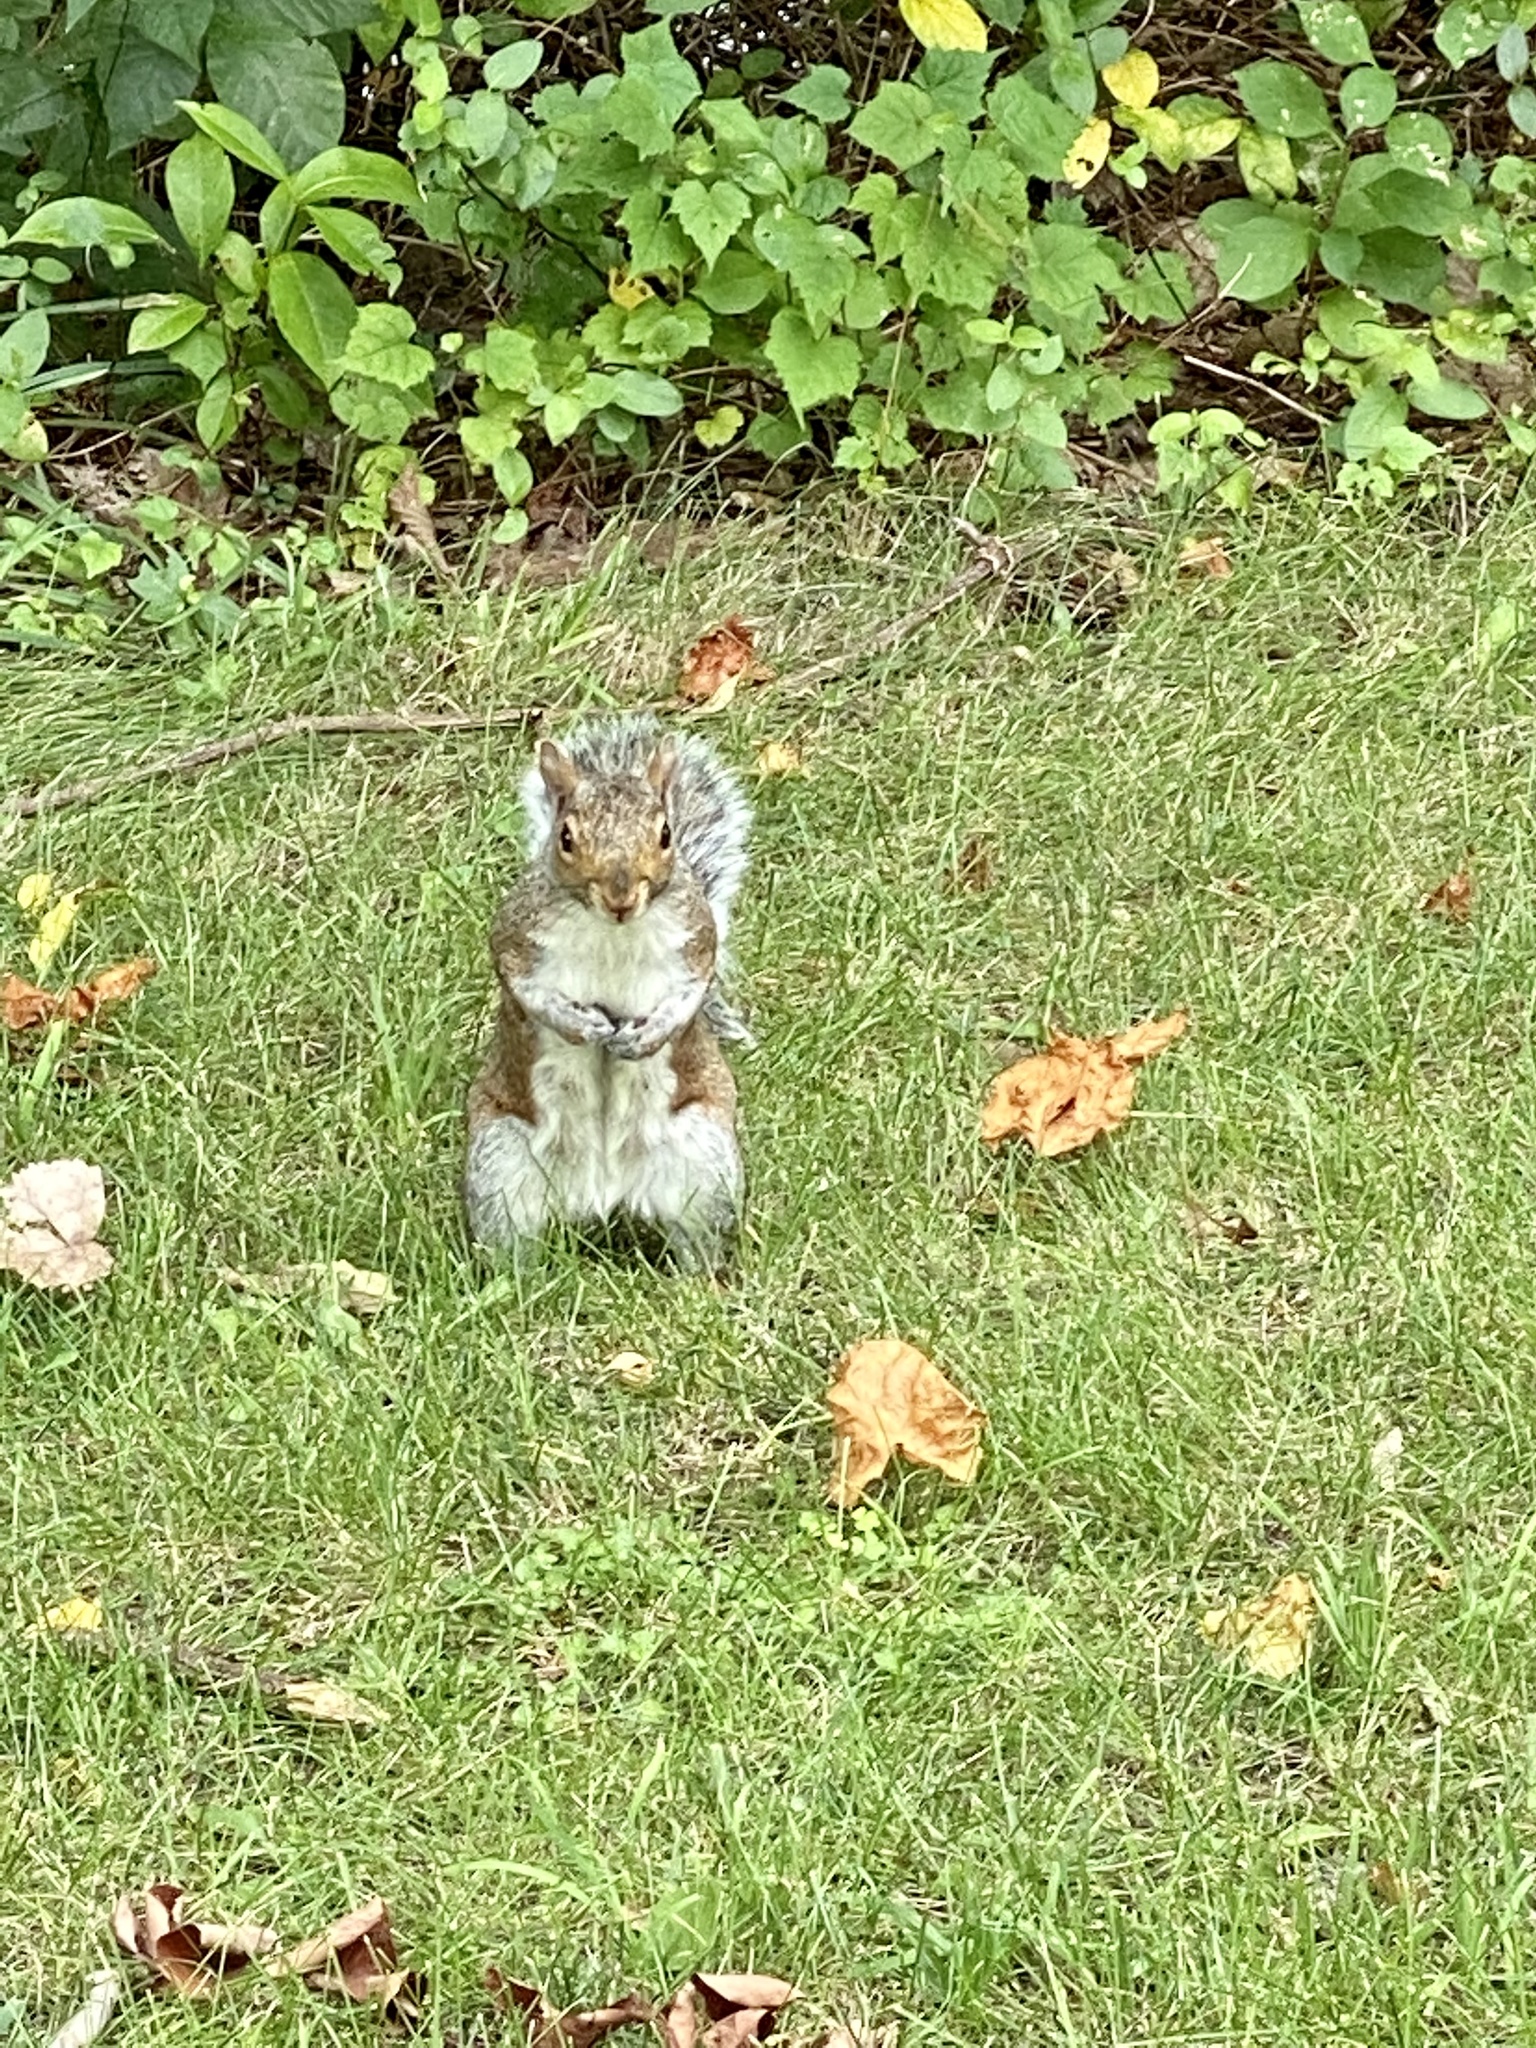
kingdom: Animalia
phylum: Chordata
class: Mammalia
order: Rodentia
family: Sciuridae
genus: Sciurus
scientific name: Sciurus carolinensis
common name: Eastern gray squirrel
